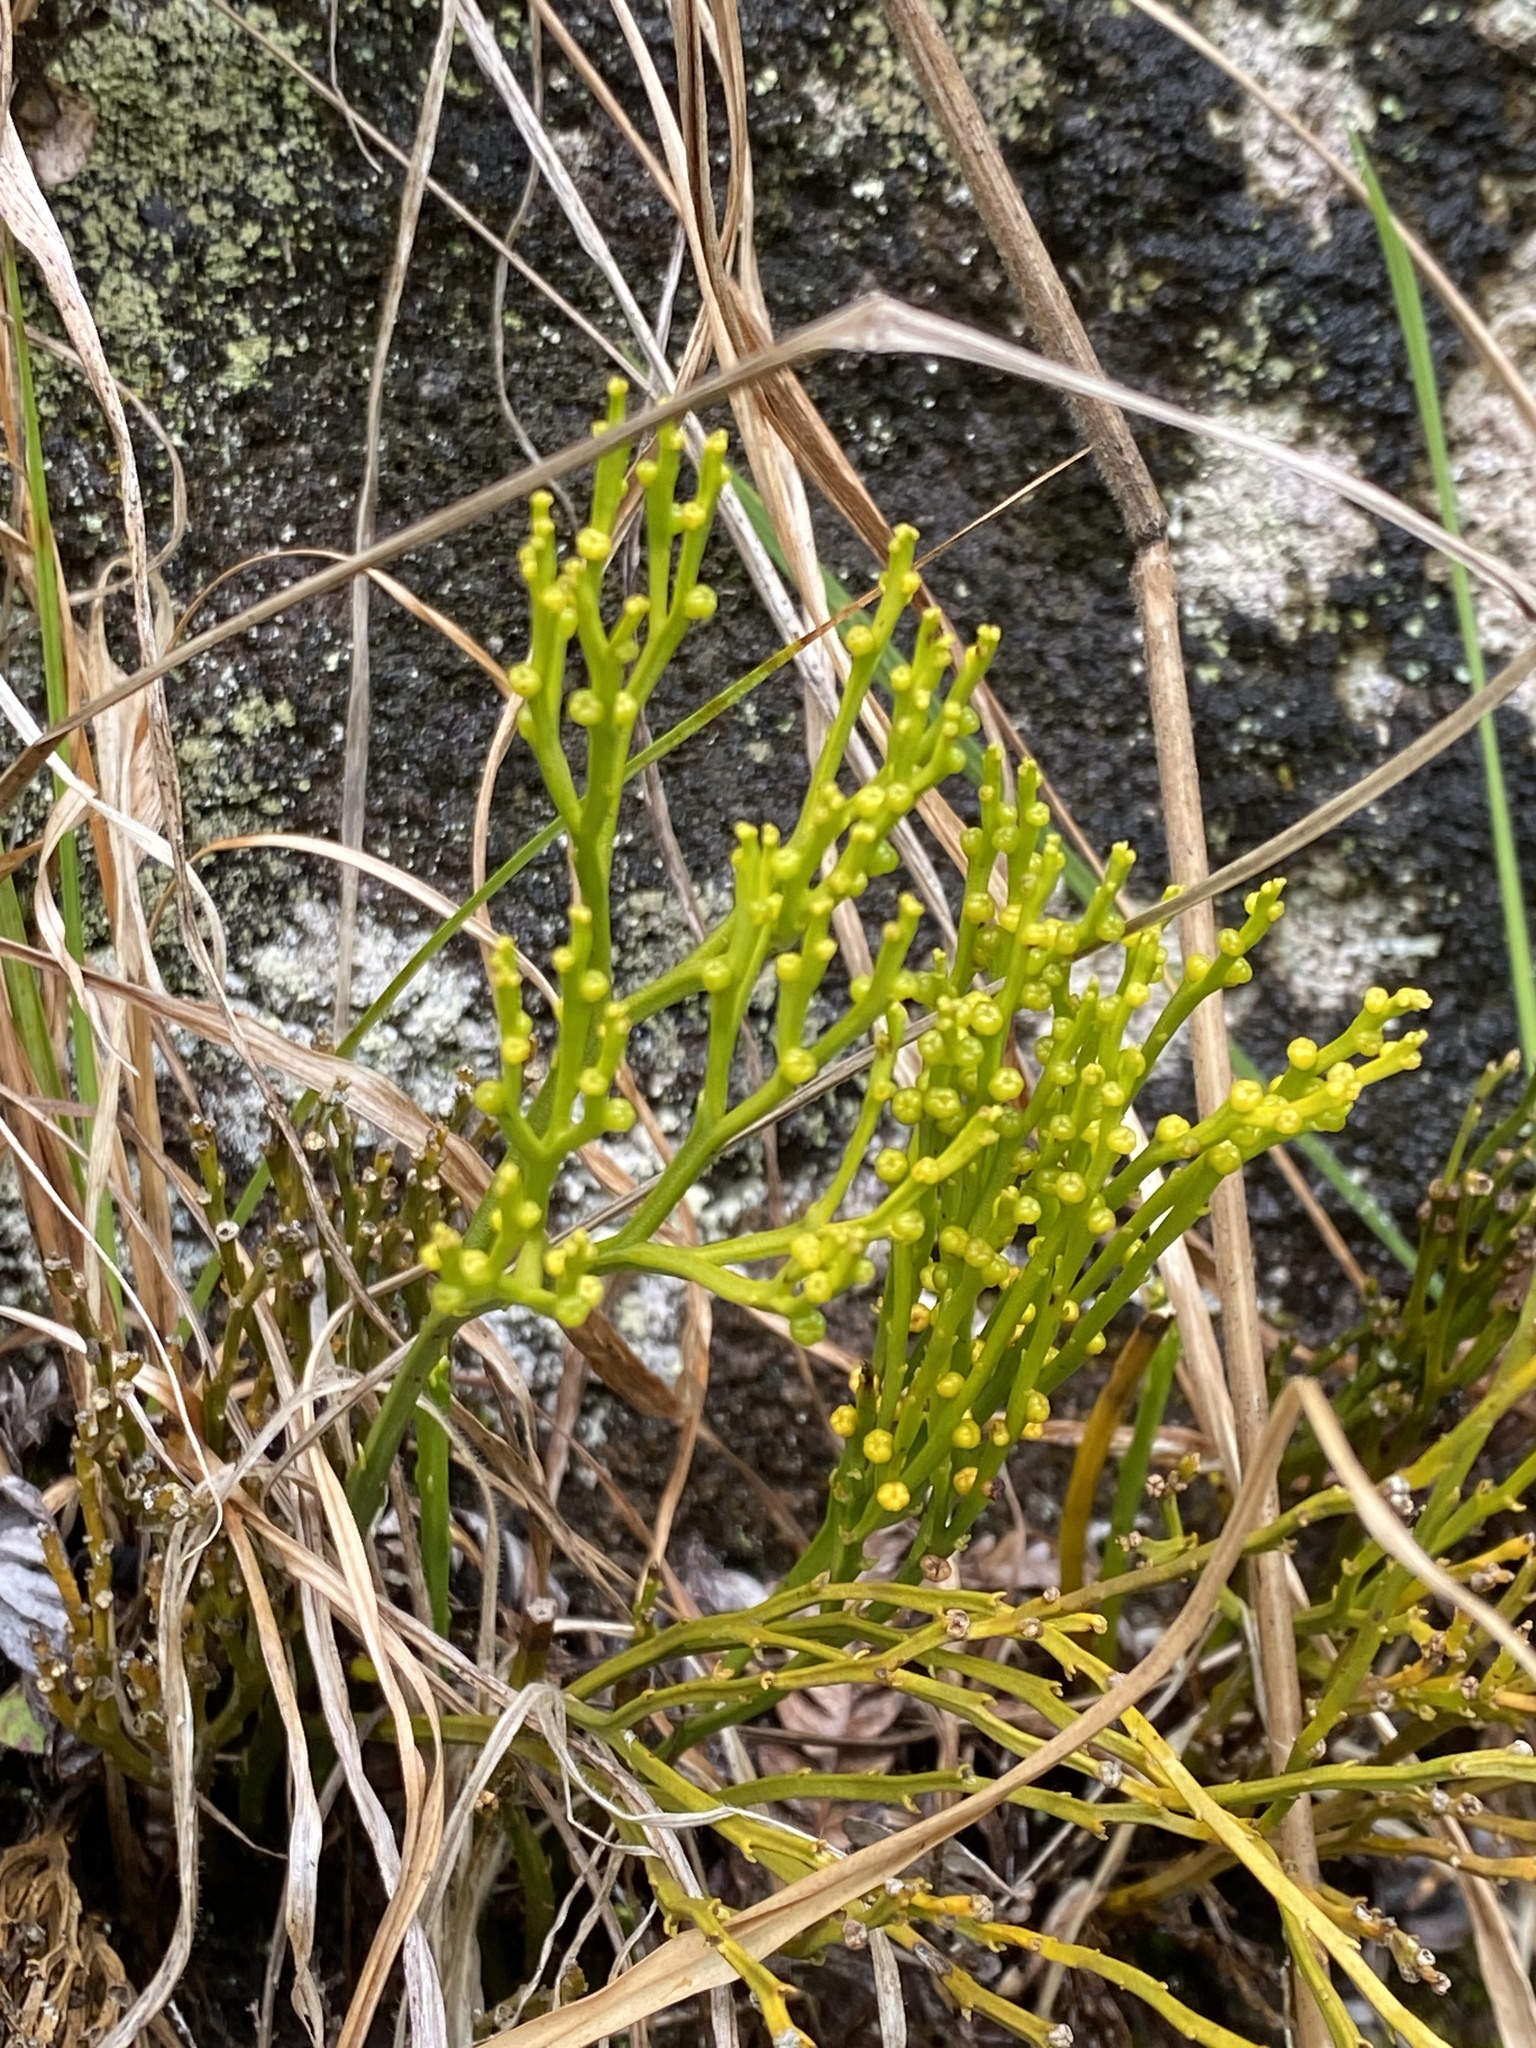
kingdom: Plantae
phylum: Tracheophyta
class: Polypodiopsida
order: Psilotales
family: Psilotaceae
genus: Psilotum
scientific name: Psilotum nudum
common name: Skeleton fork fern
